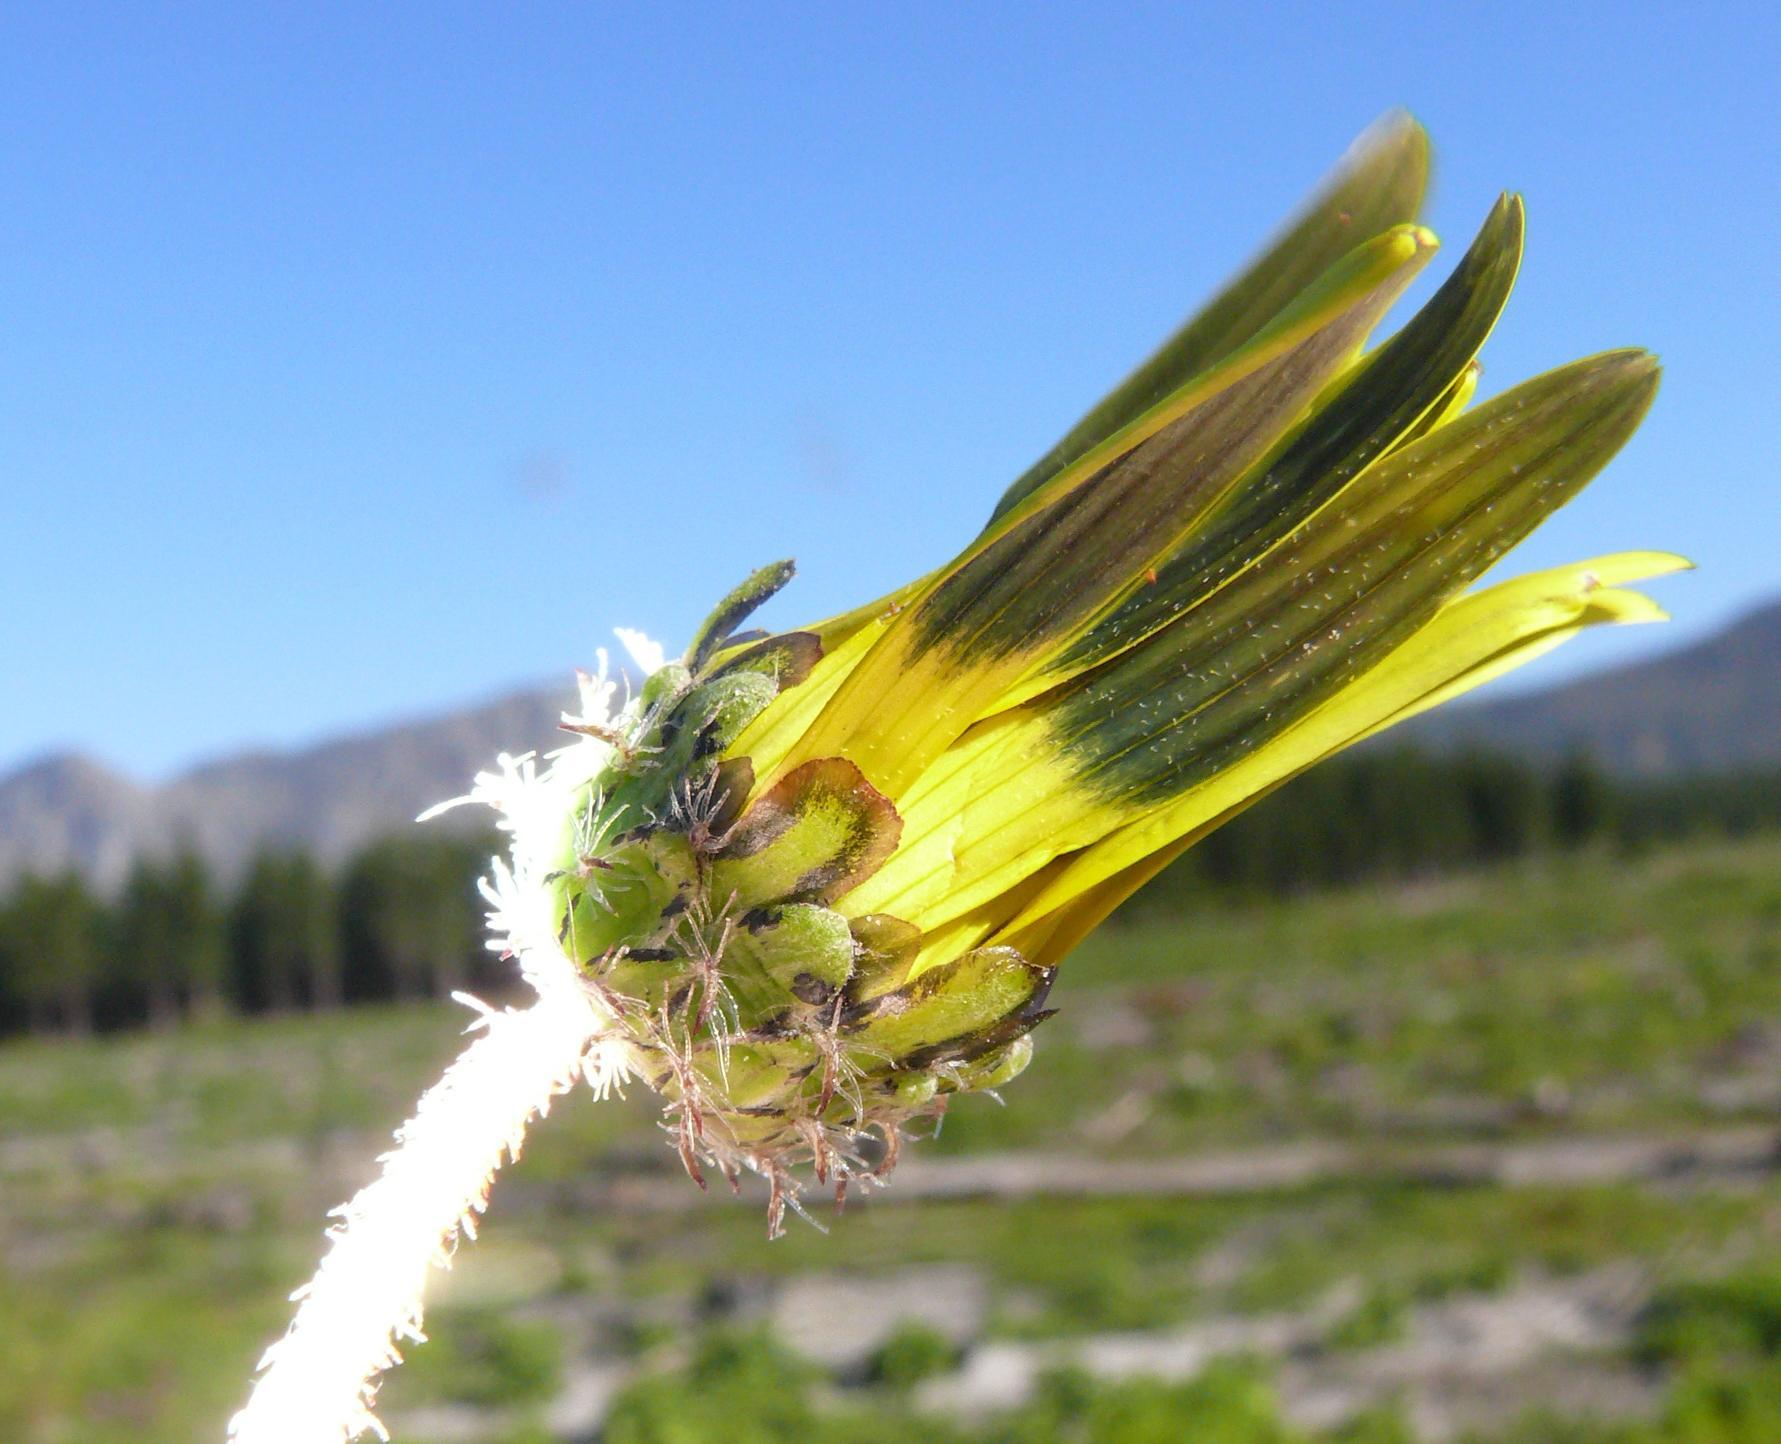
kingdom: Plantae
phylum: Tracheophyta
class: Magnoliopsida
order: Asterales
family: Asteraceae
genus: Arctotheca
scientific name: Arctotheca calendula
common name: Capeweed
